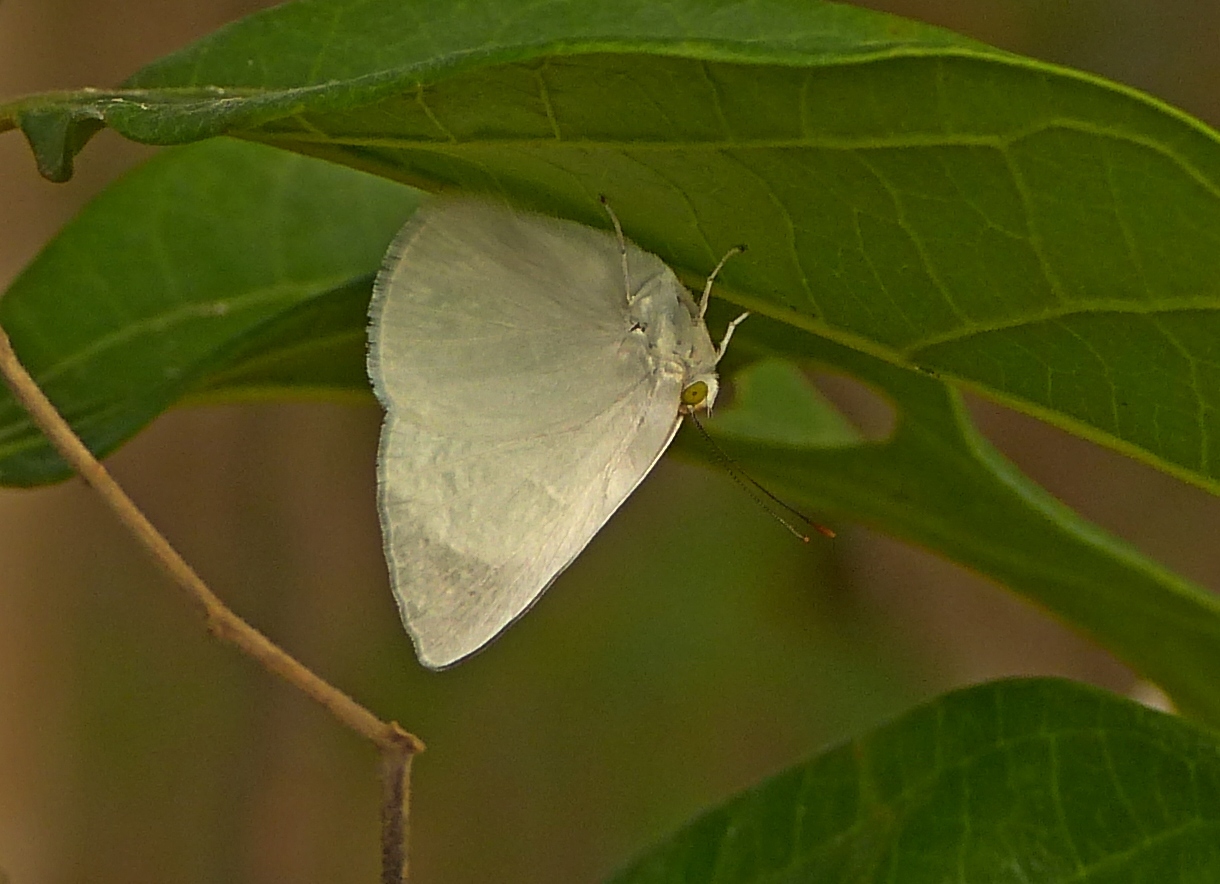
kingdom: Animalia
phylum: Arthropoda
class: Insecta
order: Lepidoptera
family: Nymphalidae
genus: Ethope
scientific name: Ethope
